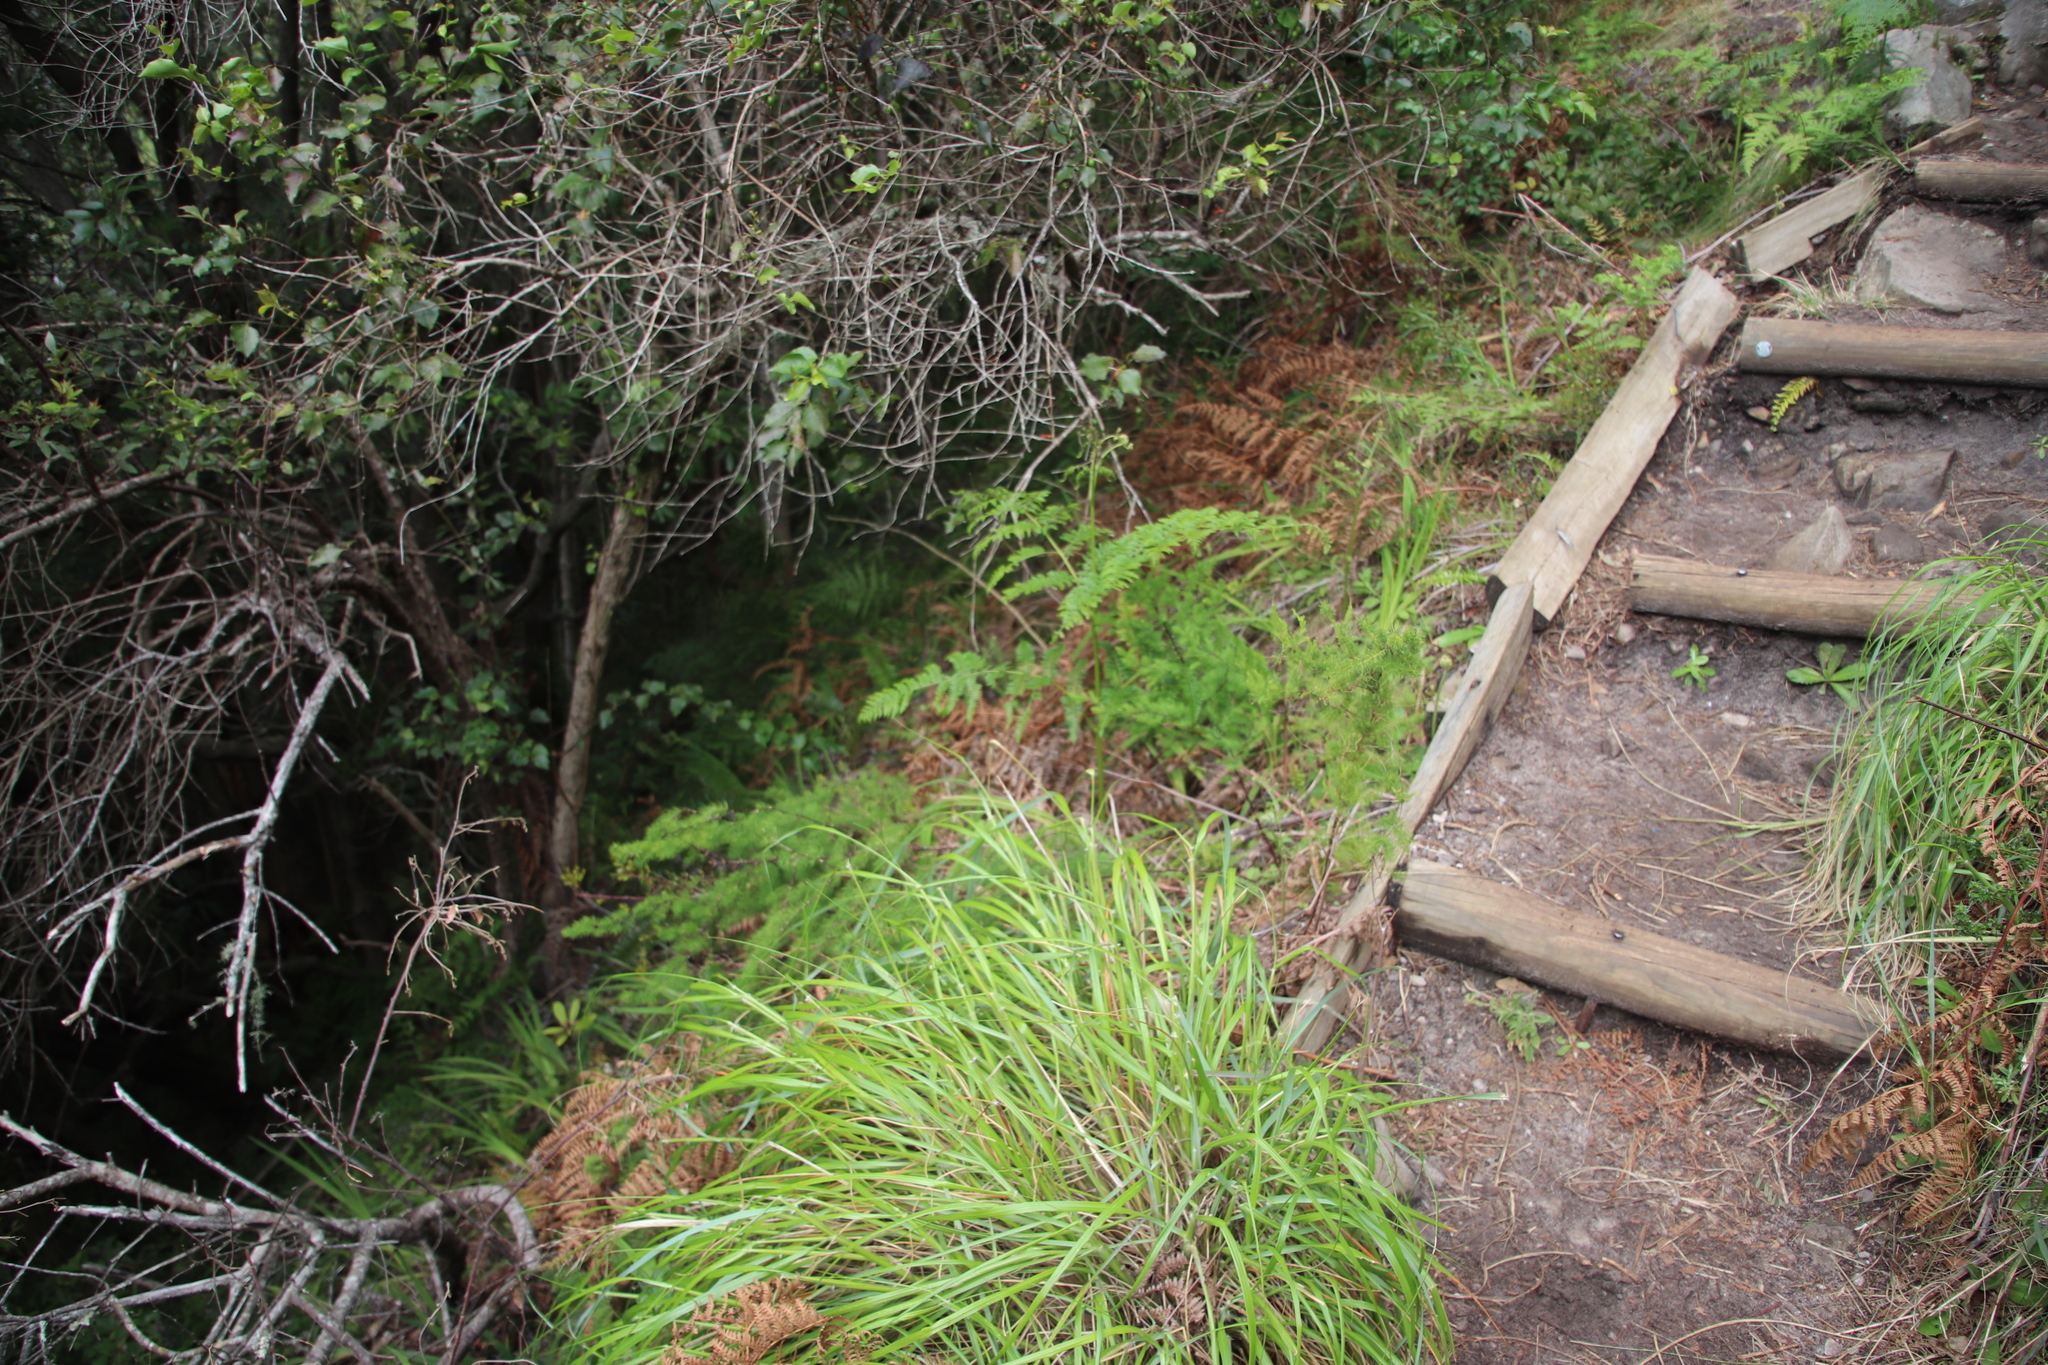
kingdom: Plantae
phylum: Tracheophyta
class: Liliopsida
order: Asparagales
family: Asparagaceae
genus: Asparagus
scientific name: Asparagus rubicundus
